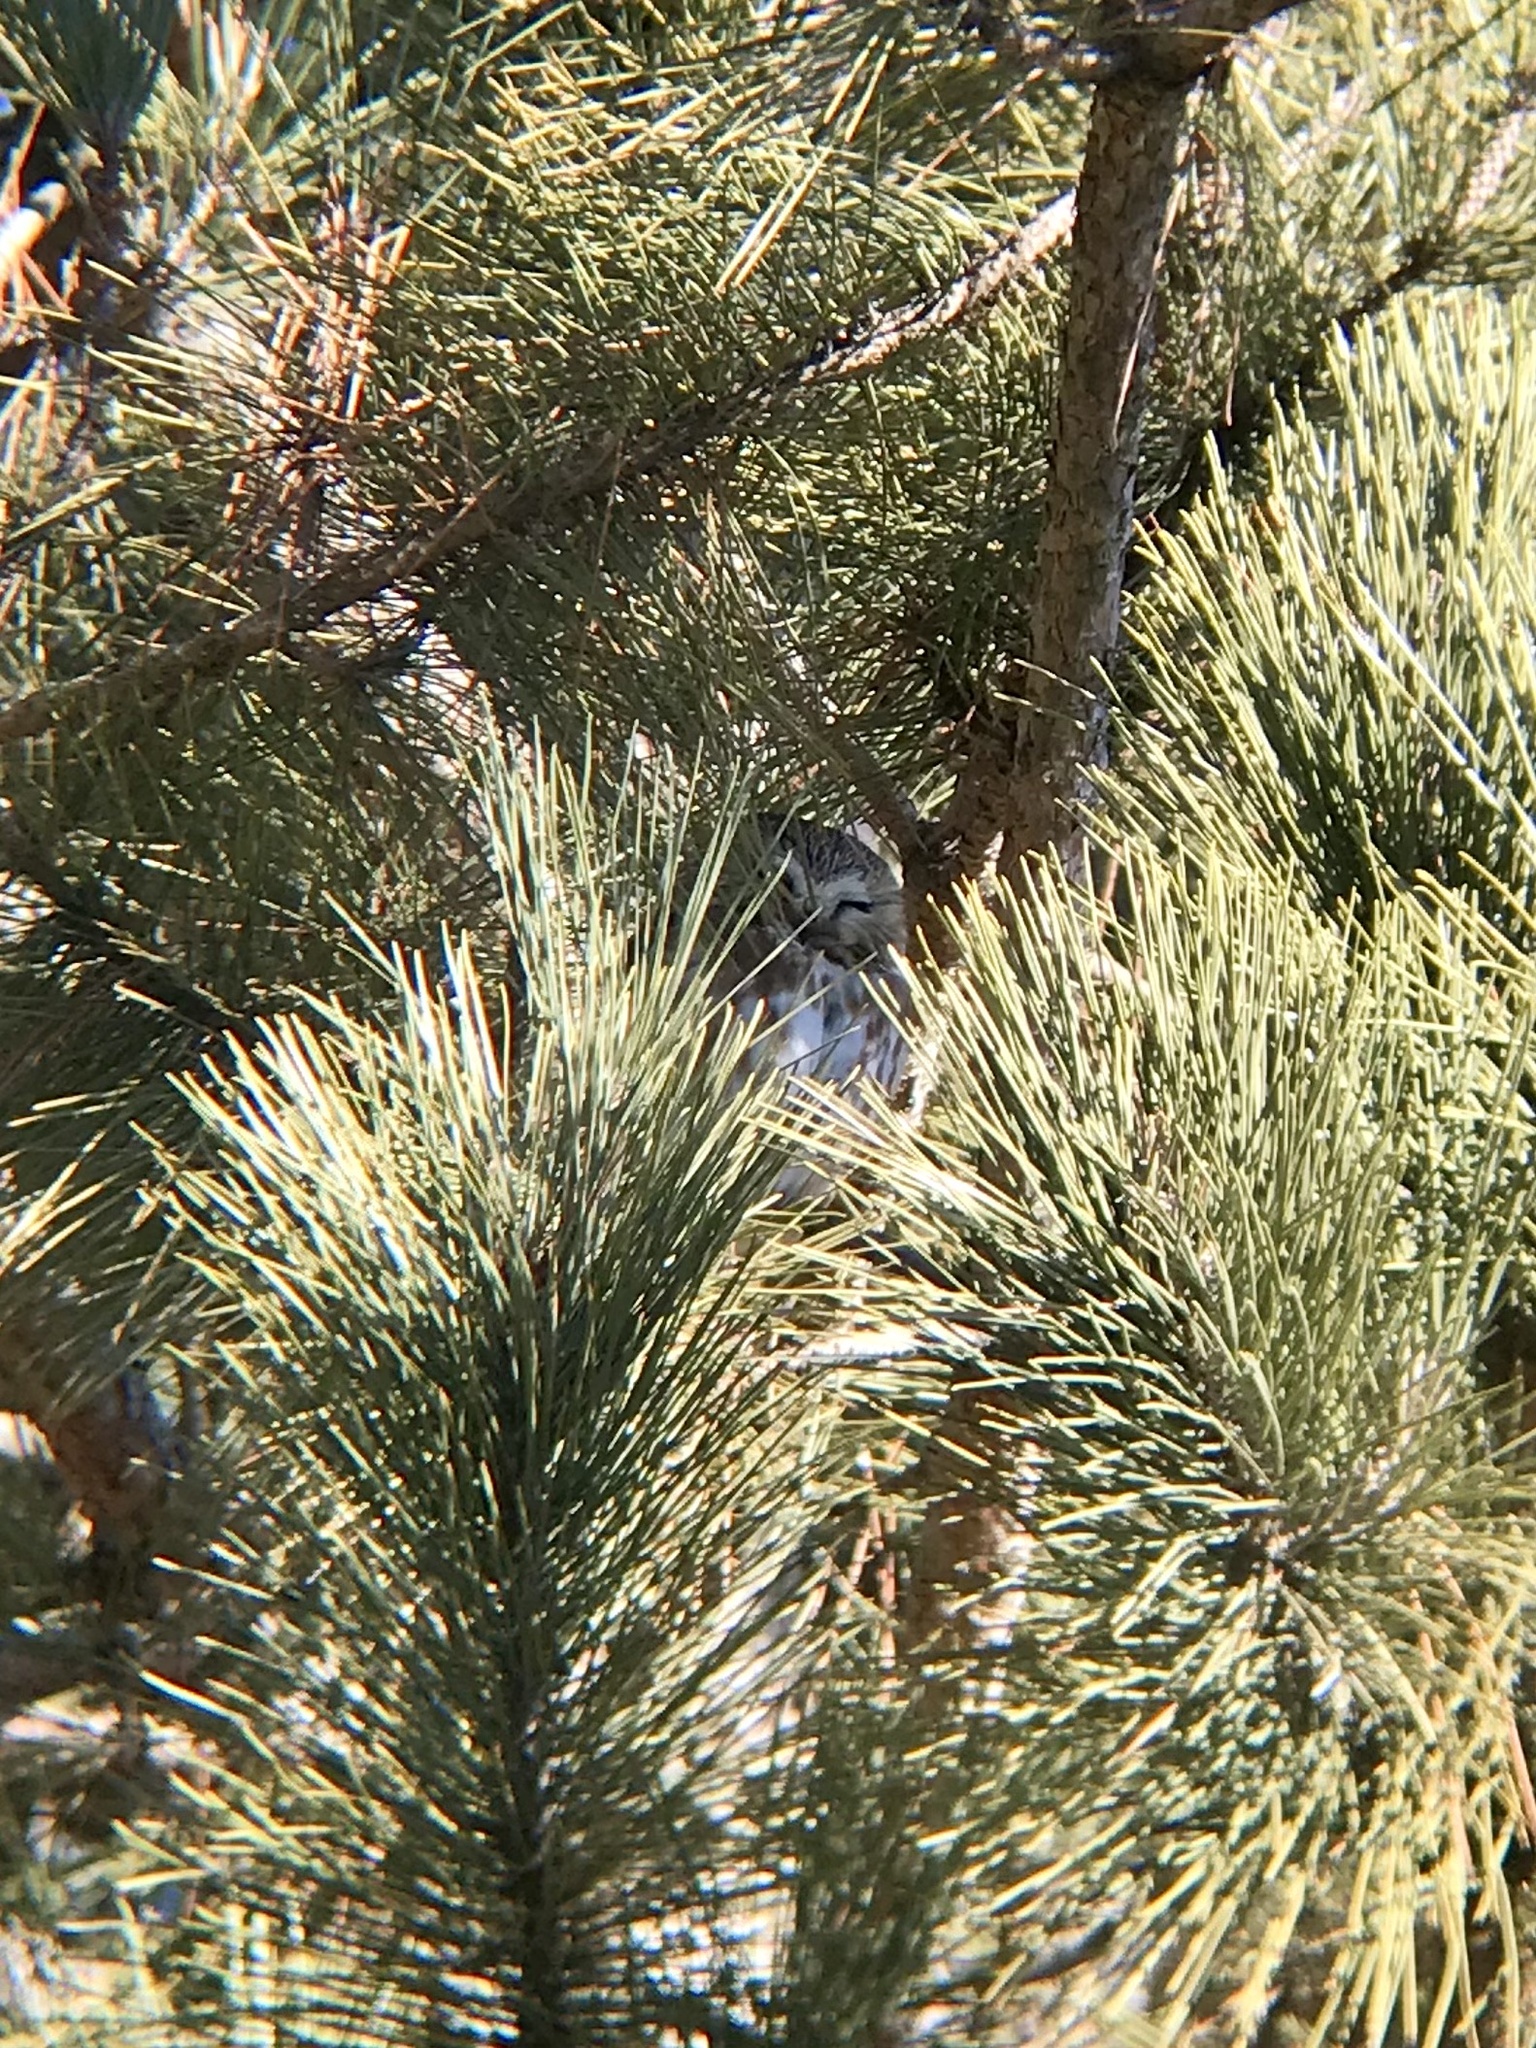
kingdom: Animalia
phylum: Chordata
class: Aves
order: Strigiformes
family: Strigidae
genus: Aegolius
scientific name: Aegolius acadicus
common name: Northern saw-whet owl
